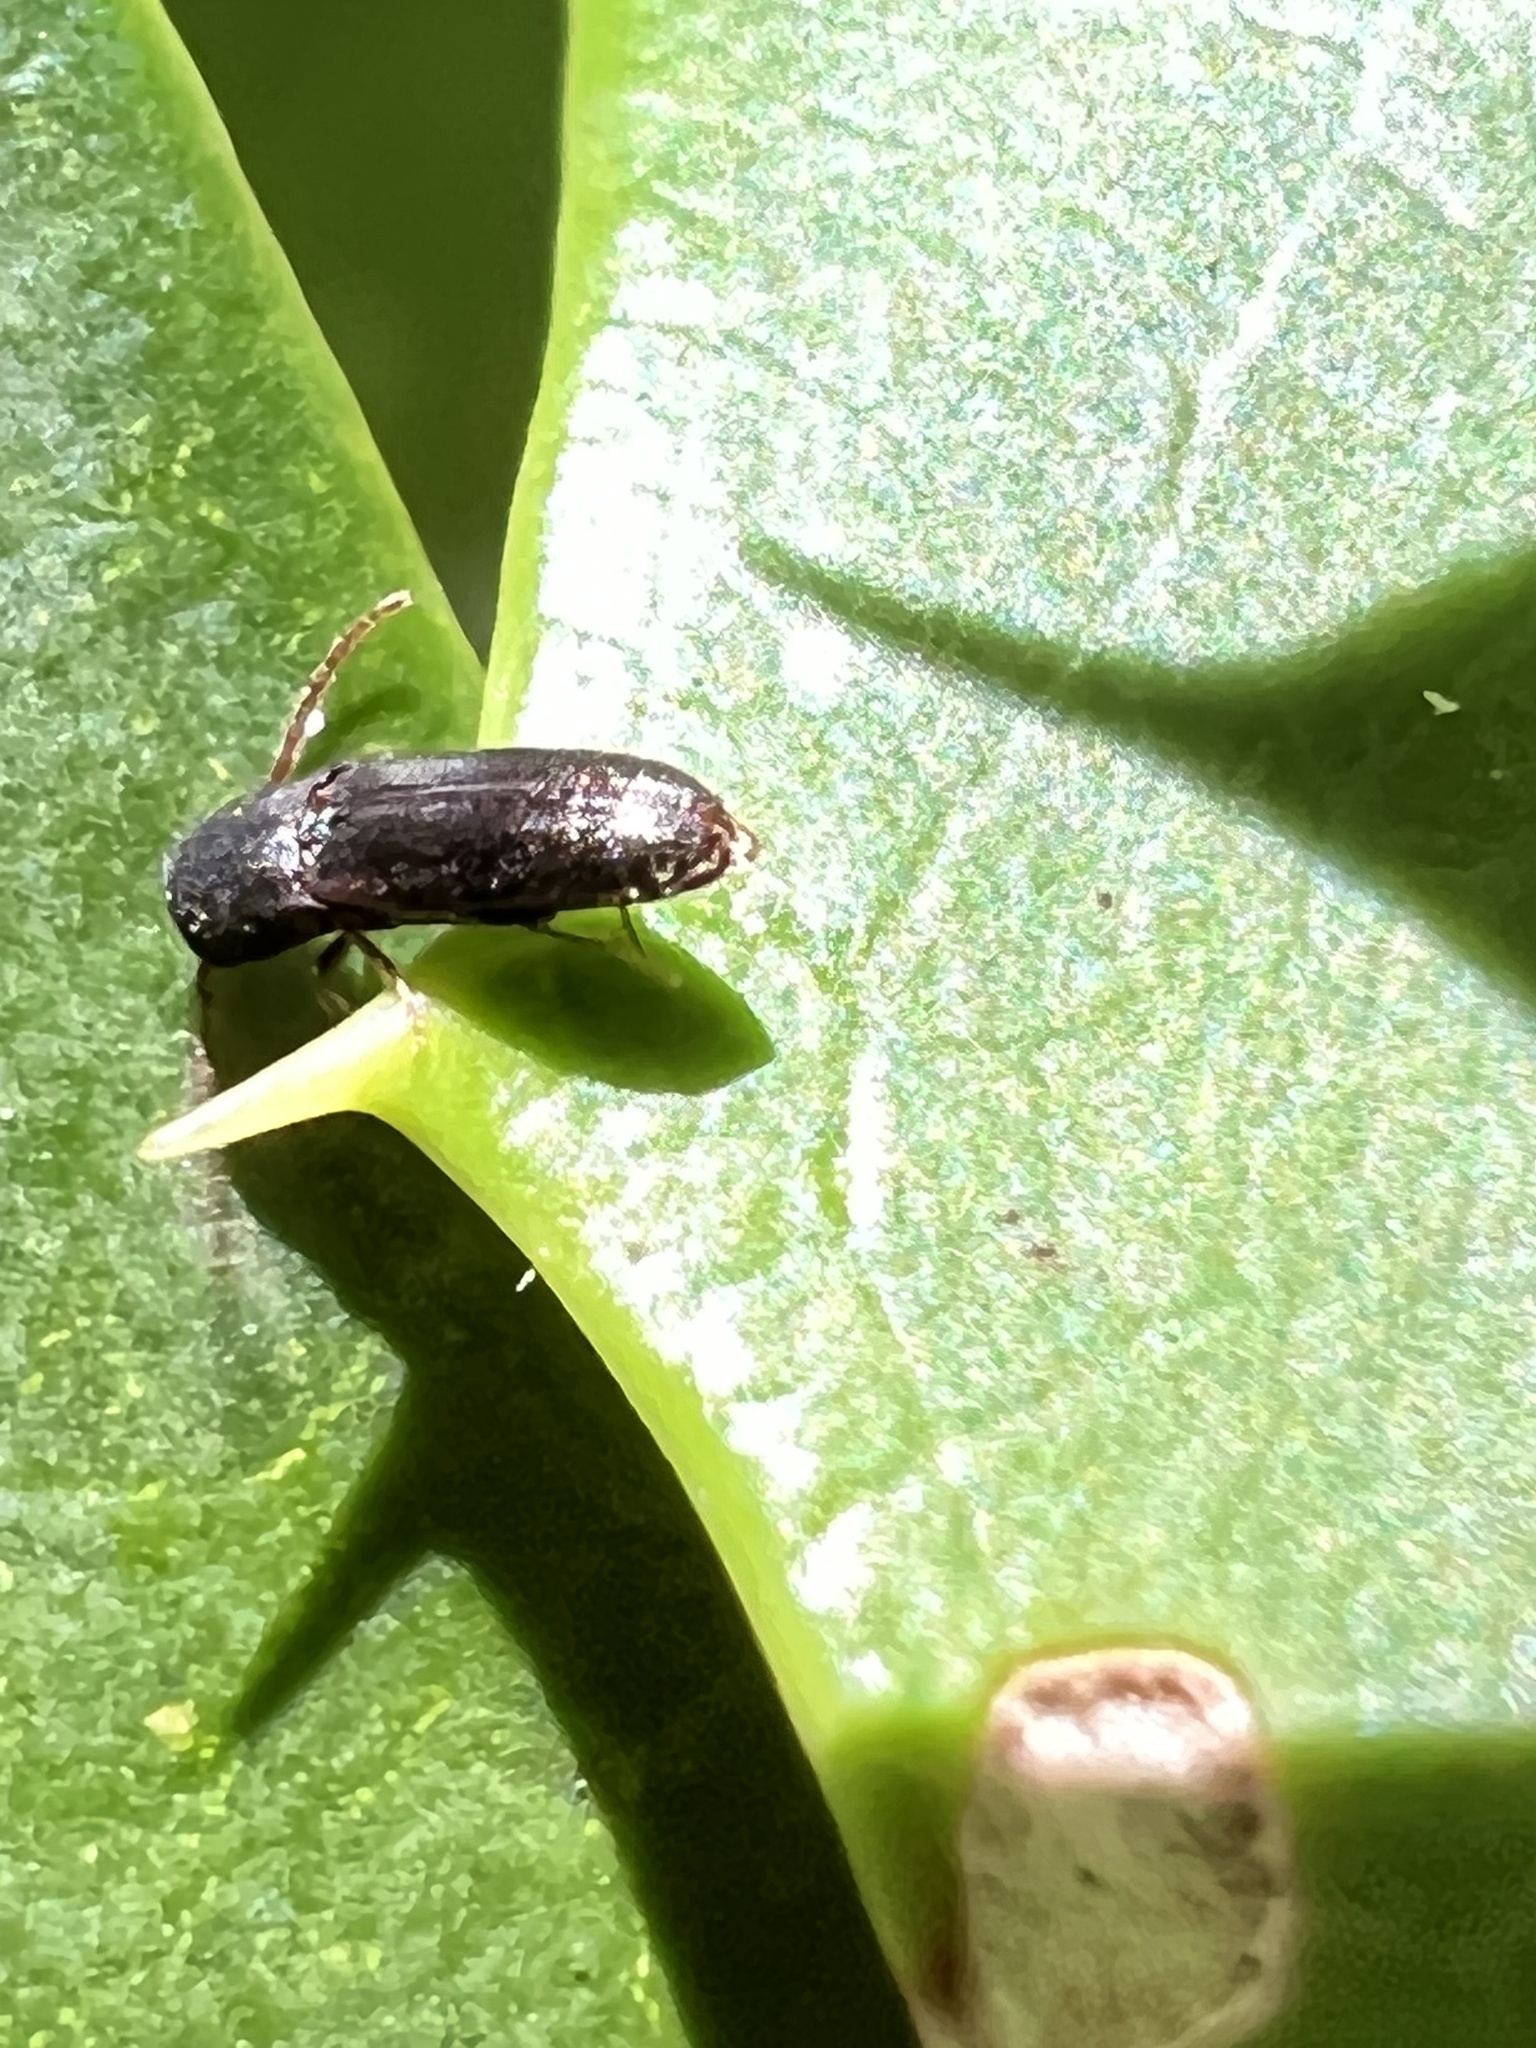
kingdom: Animalia
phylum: Arthropoda
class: Insecta
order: Coleoptera
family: Eucnemidae
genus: Rhagomicrus
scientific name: Rhagomicrus bonvouloiri
